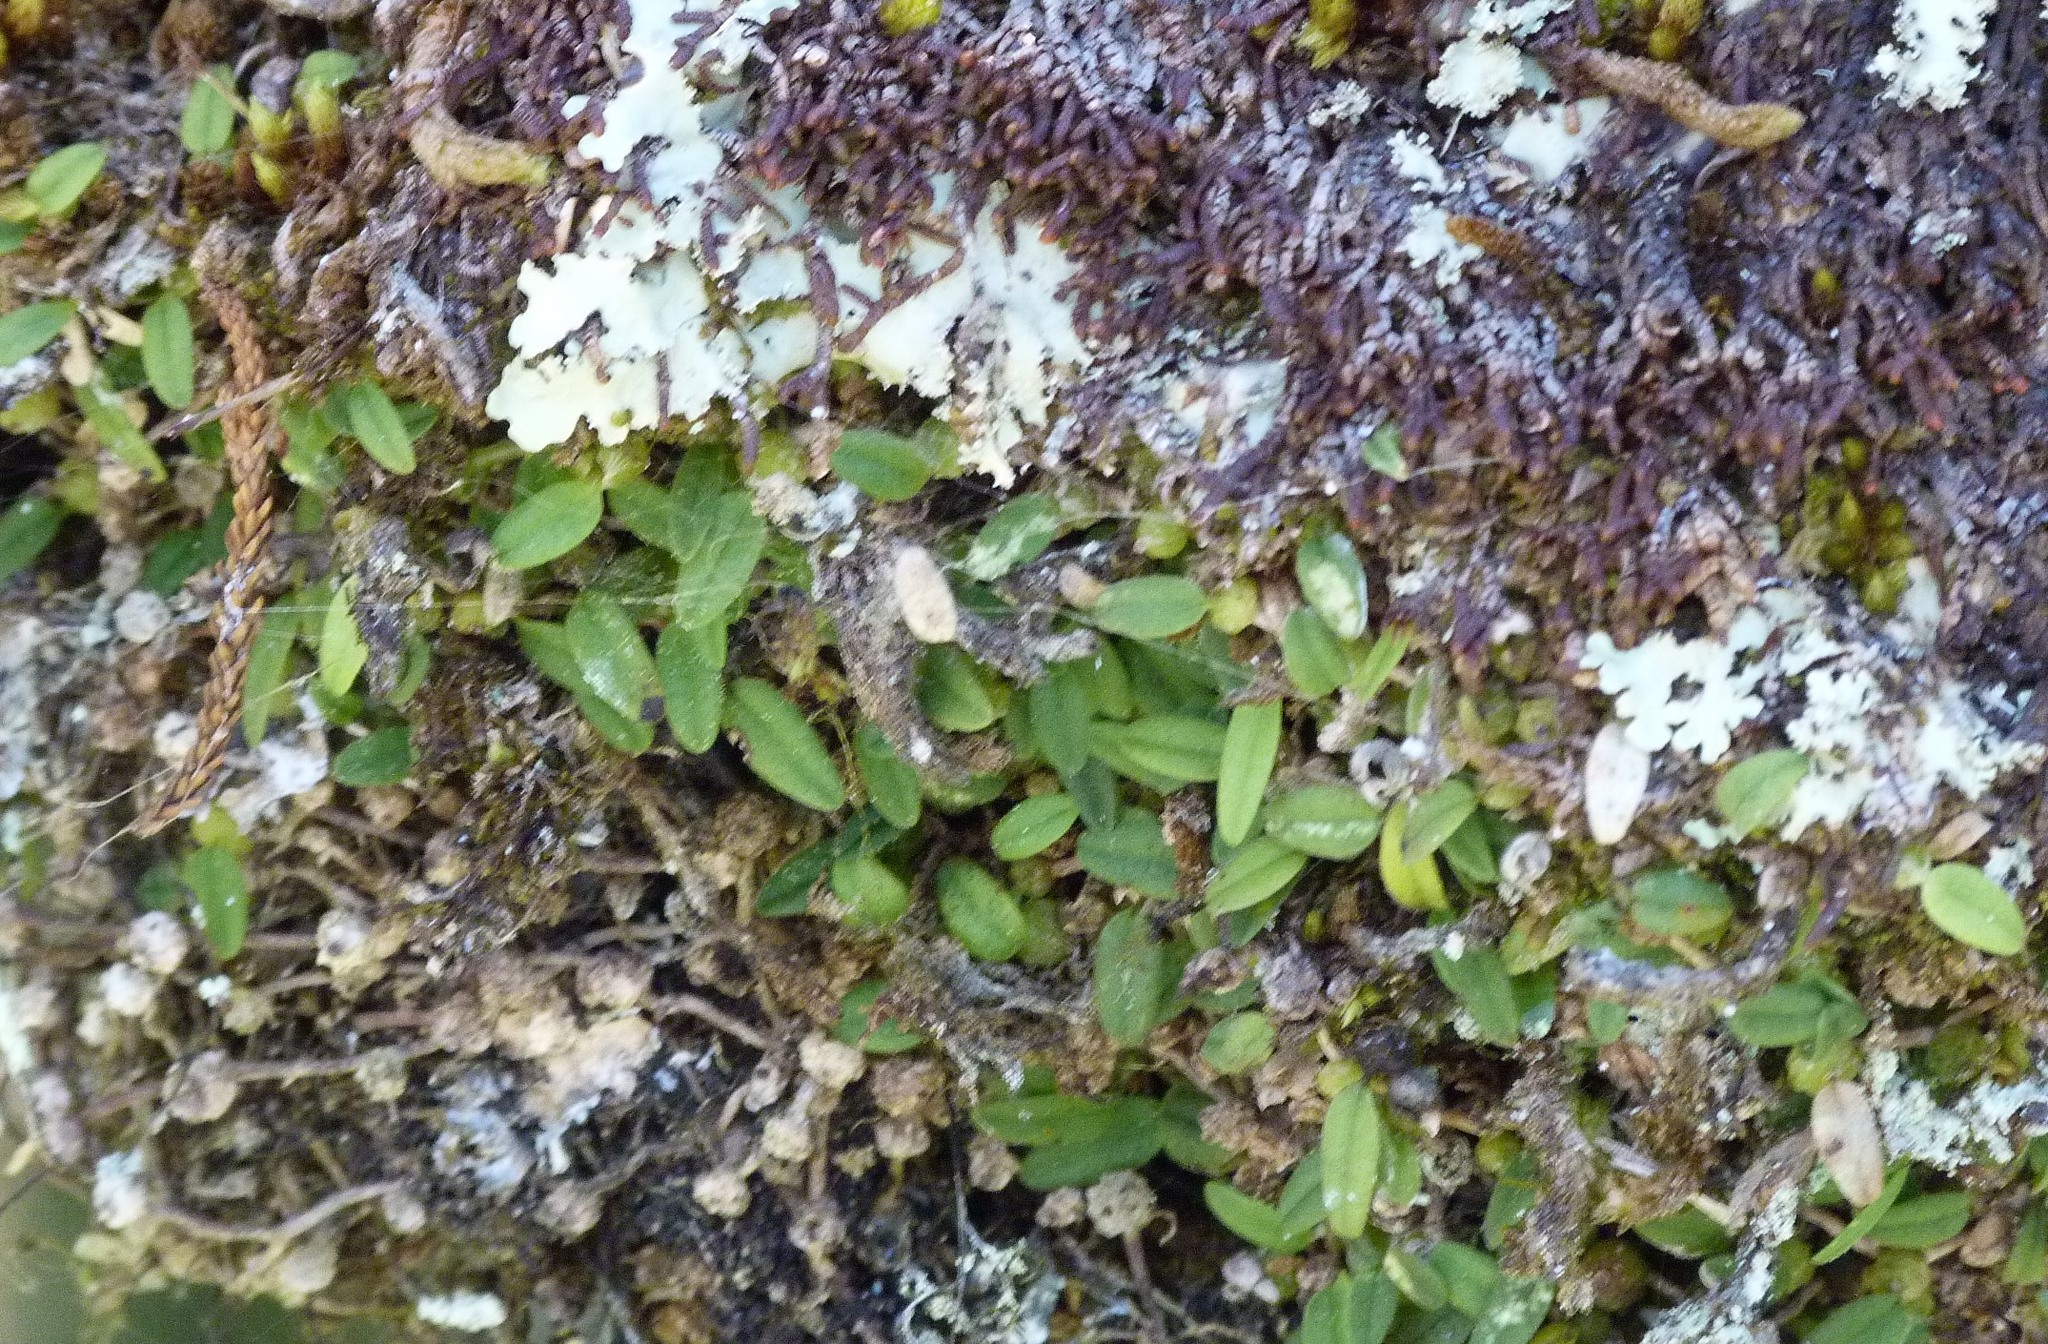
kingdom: Plantae
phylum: Tracheophyta
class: Liliopsida
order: Asparagales
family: Orchidaceae
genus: Bulbophyllum
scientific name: Bulbophyllum pygmaeum
